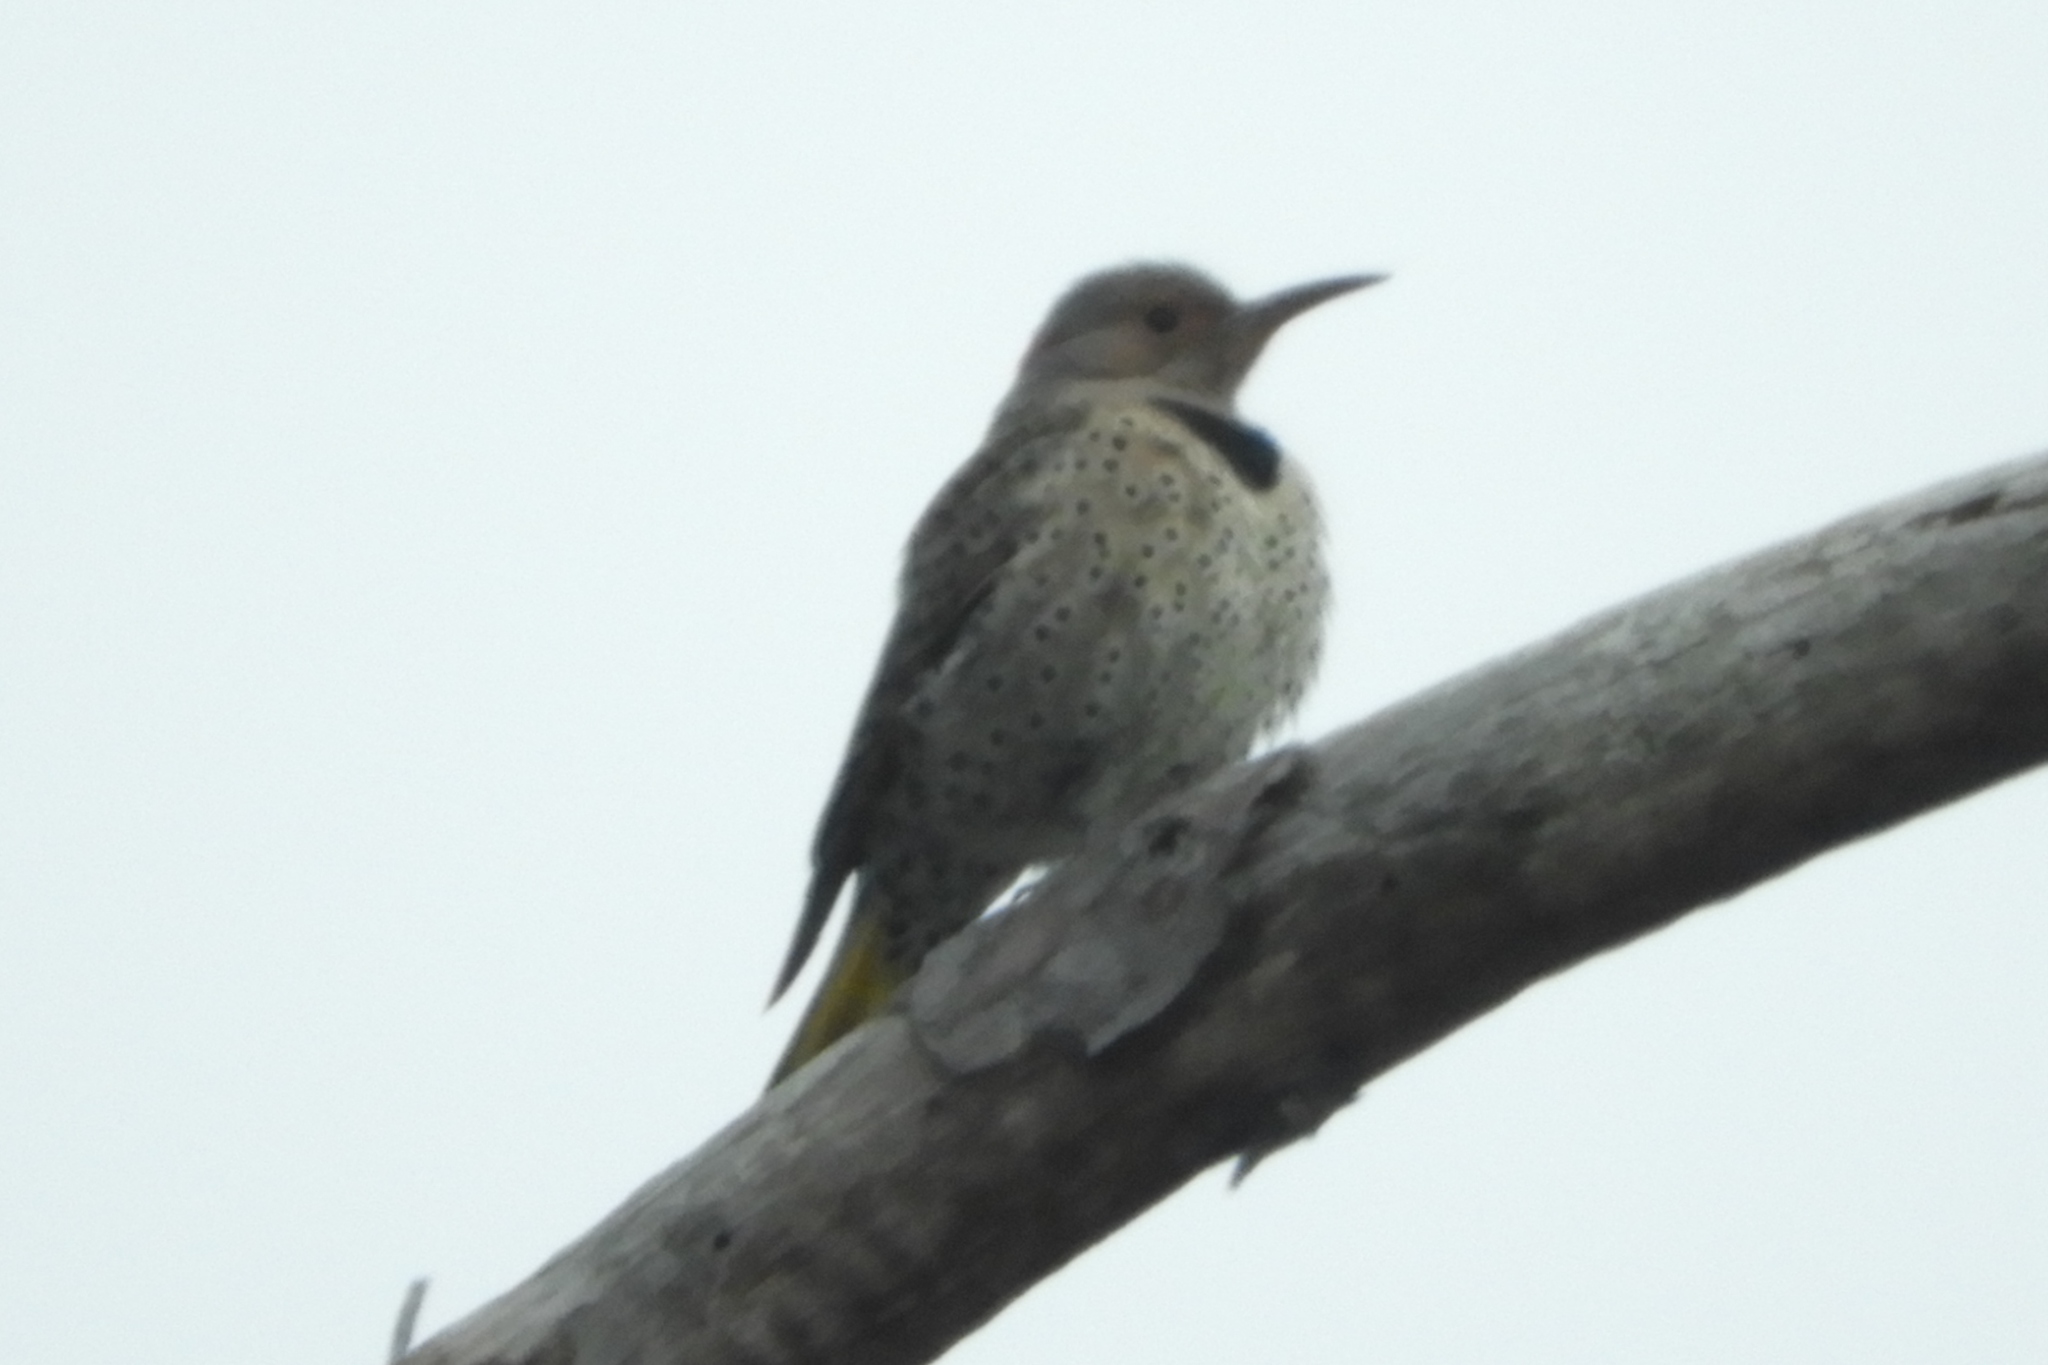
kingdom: Animalia
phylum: Chordata
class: Aves
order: Piciformes
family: Picidae
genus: Colaptes
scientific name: Colaptes auratus
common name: Northern flicker
